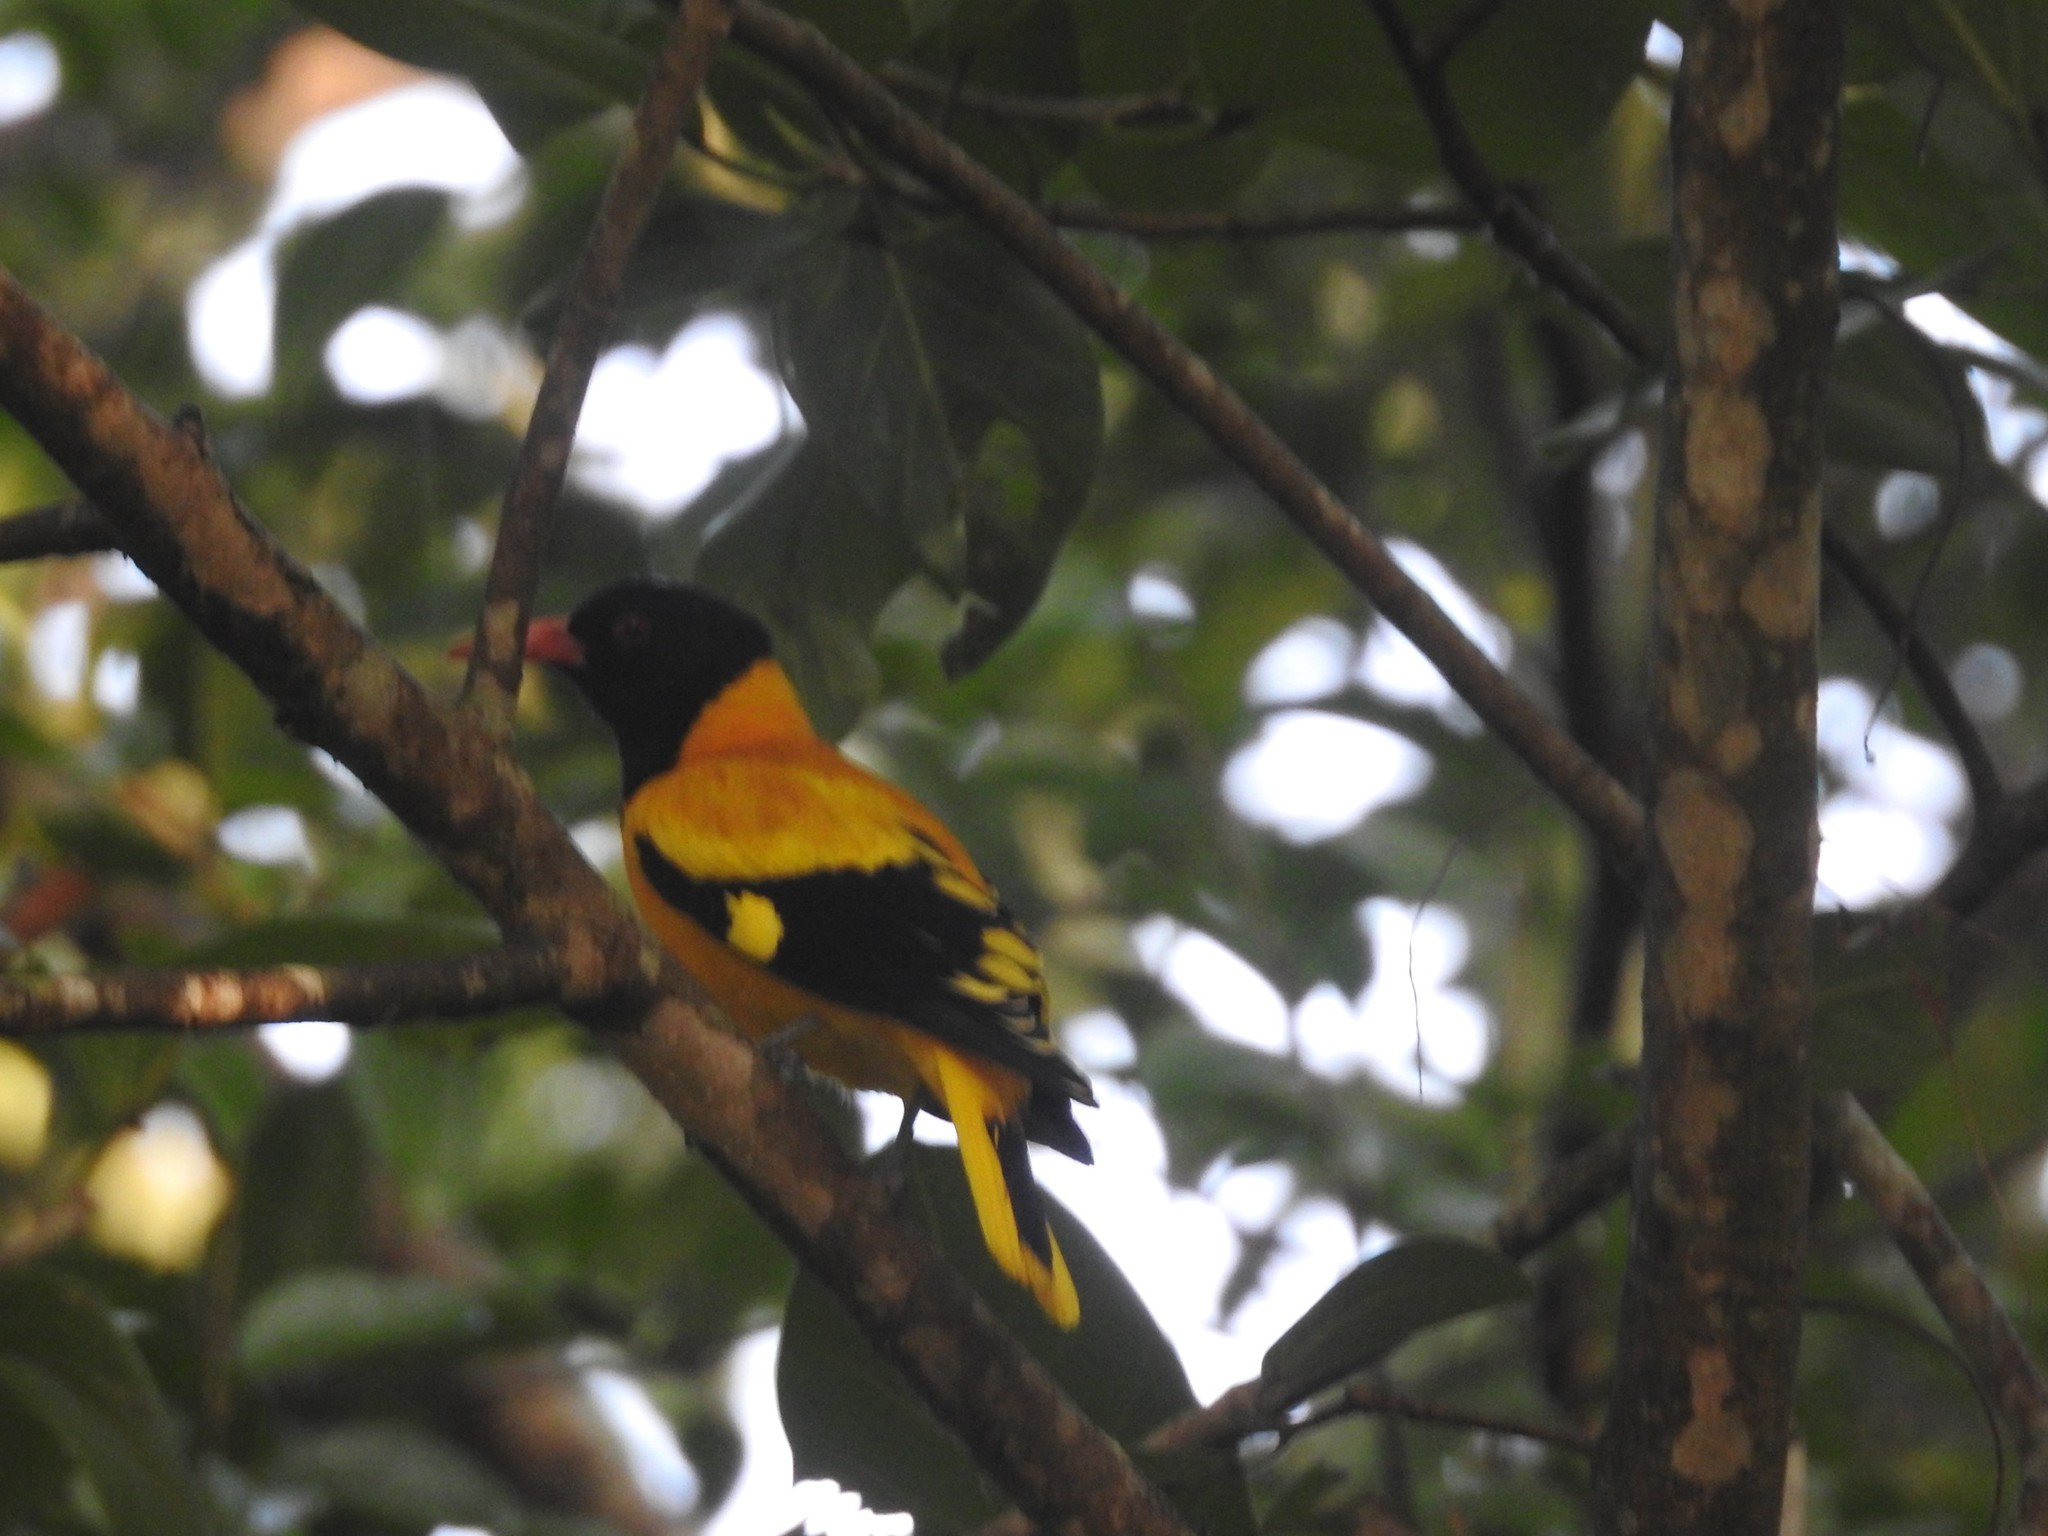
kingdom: Animalia
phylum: Chordata
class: Aves
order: Passeriformes
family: Oriolidae
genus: Oriolus
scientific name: Oriolus xanthornus
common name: Black-hooded oriole
